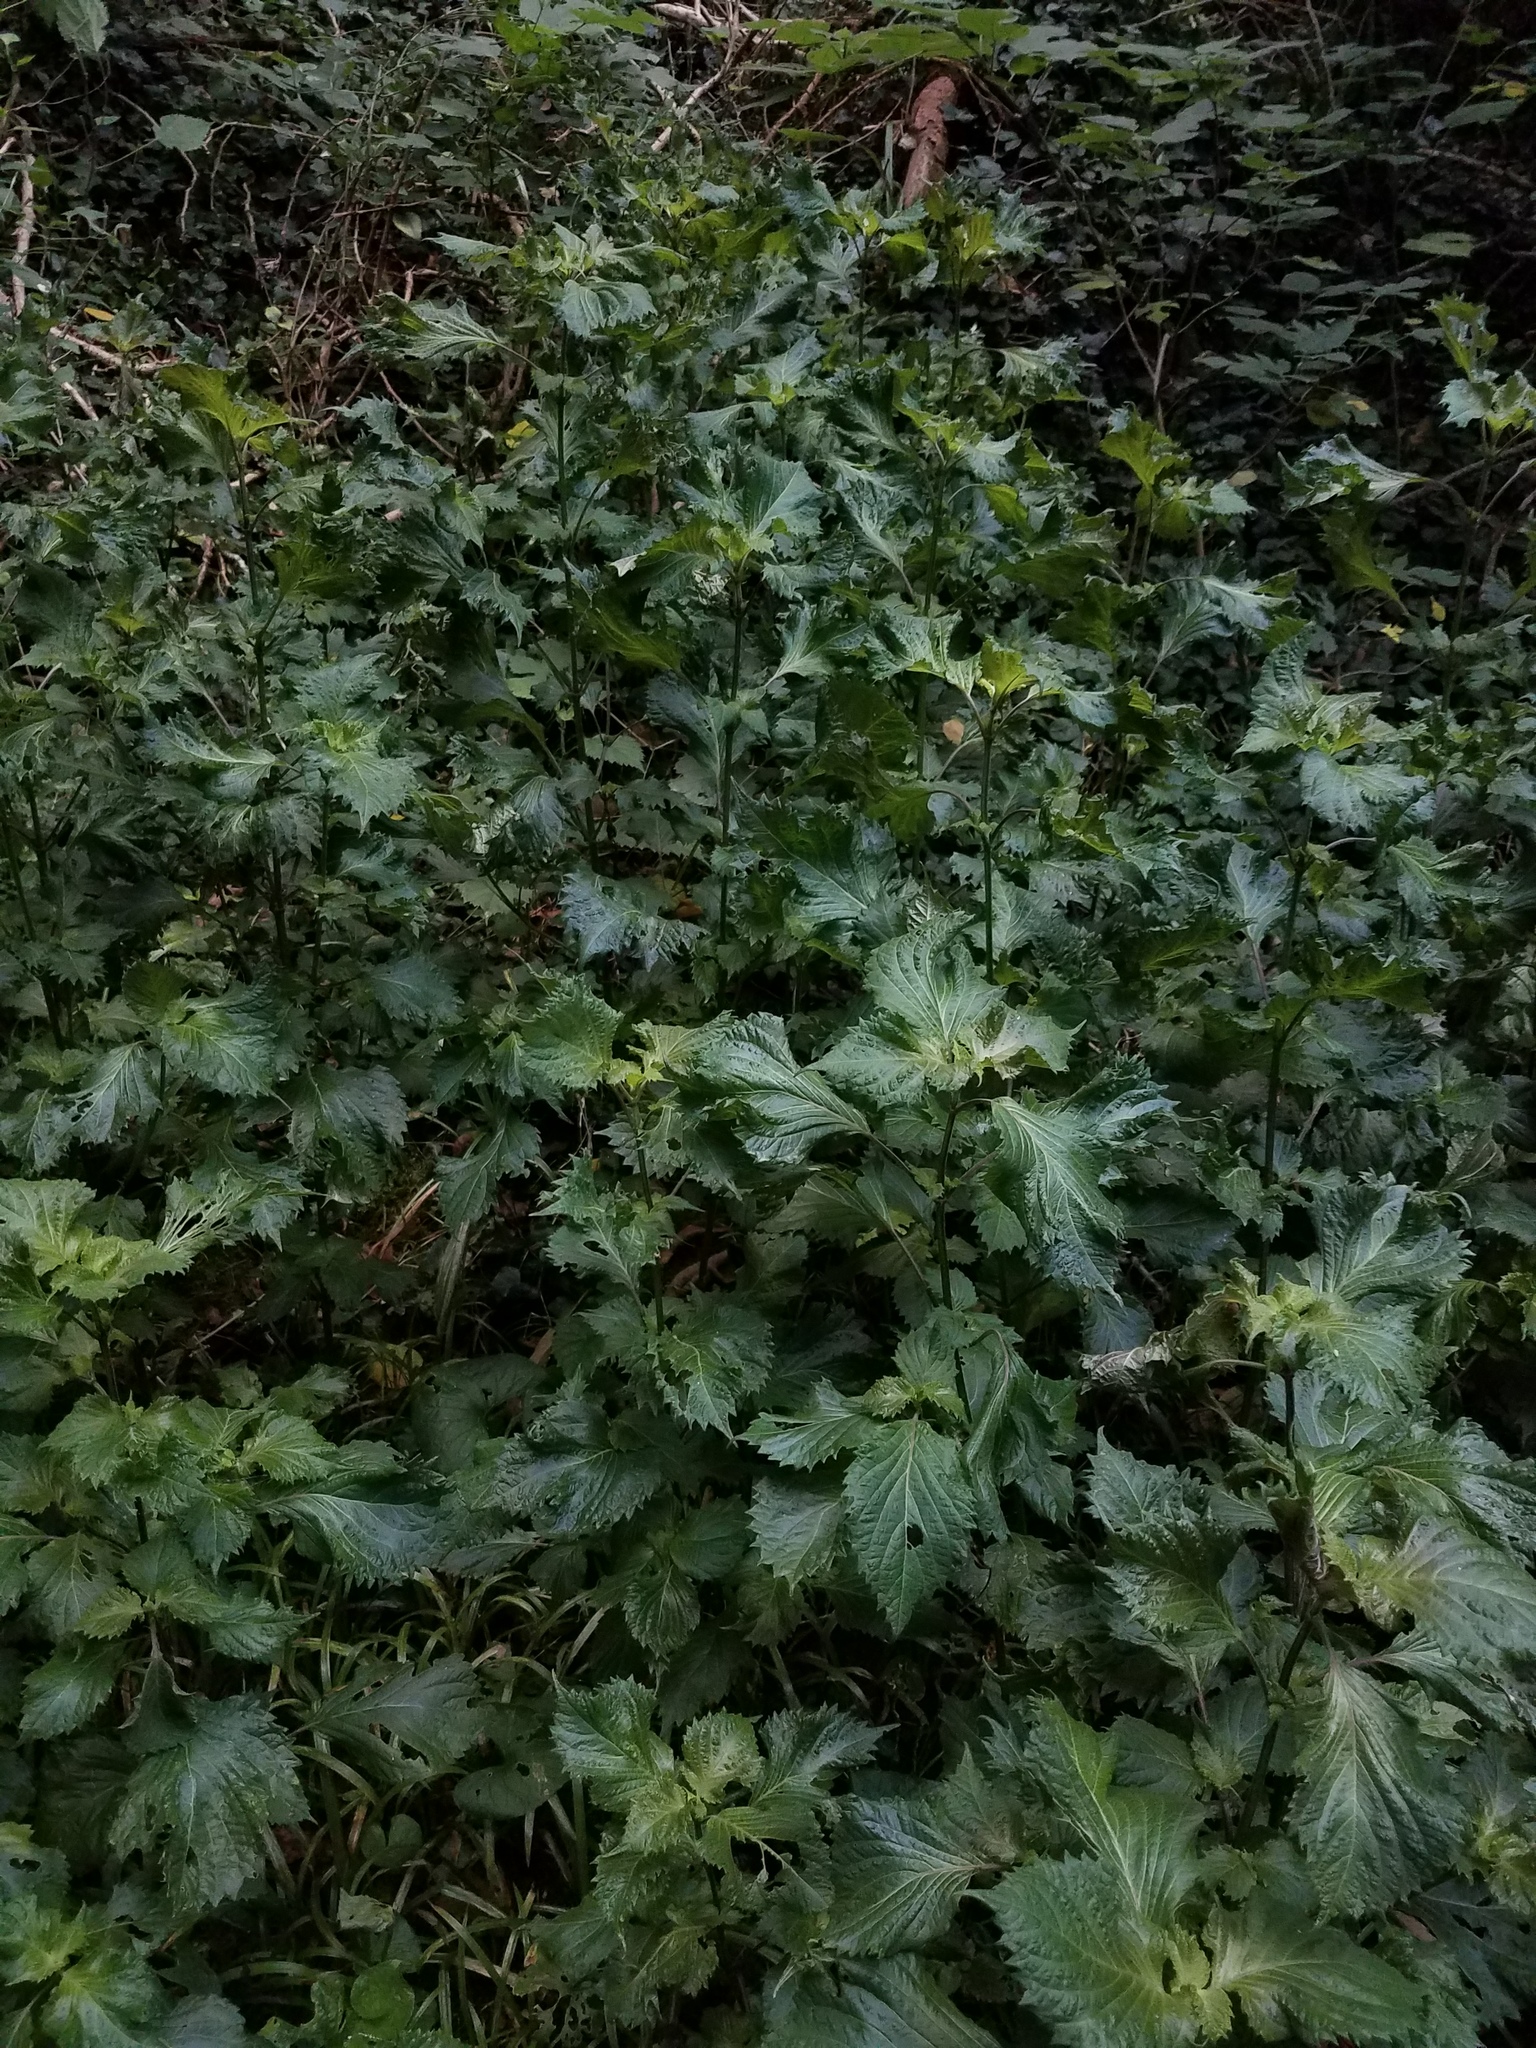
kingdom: Plantae
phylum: Tracheophyta
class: Magnoliopsida
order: Lamiales
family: Lamiaceae
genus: Perilla
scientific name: Perilla frutescens
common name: Perilla
